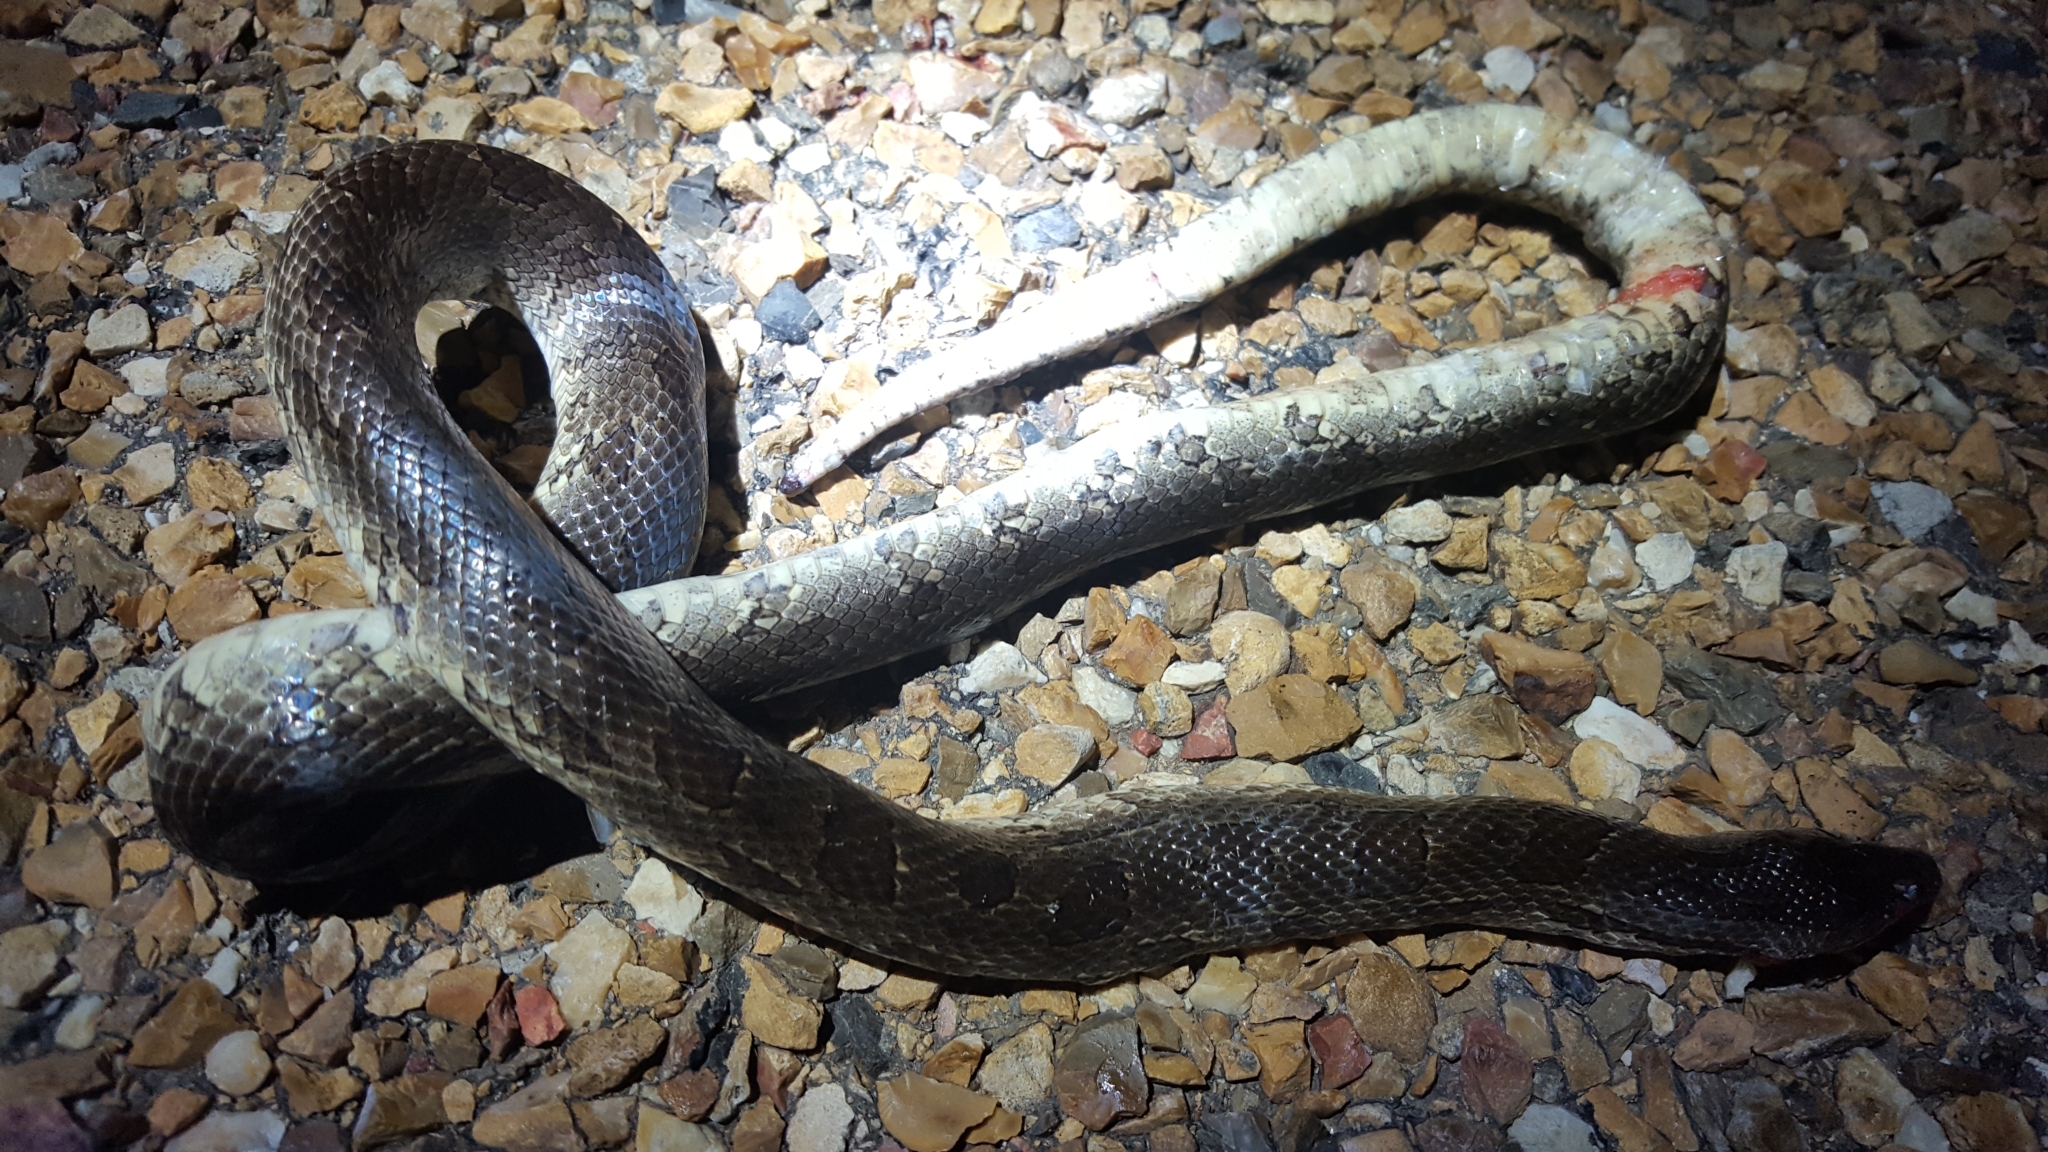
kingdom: Animalia
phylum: Chordata
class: Squamata
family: Colubridae
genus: Lampropeltis
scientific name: Lampropeltis calligaster
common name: Prairie kingsnake
